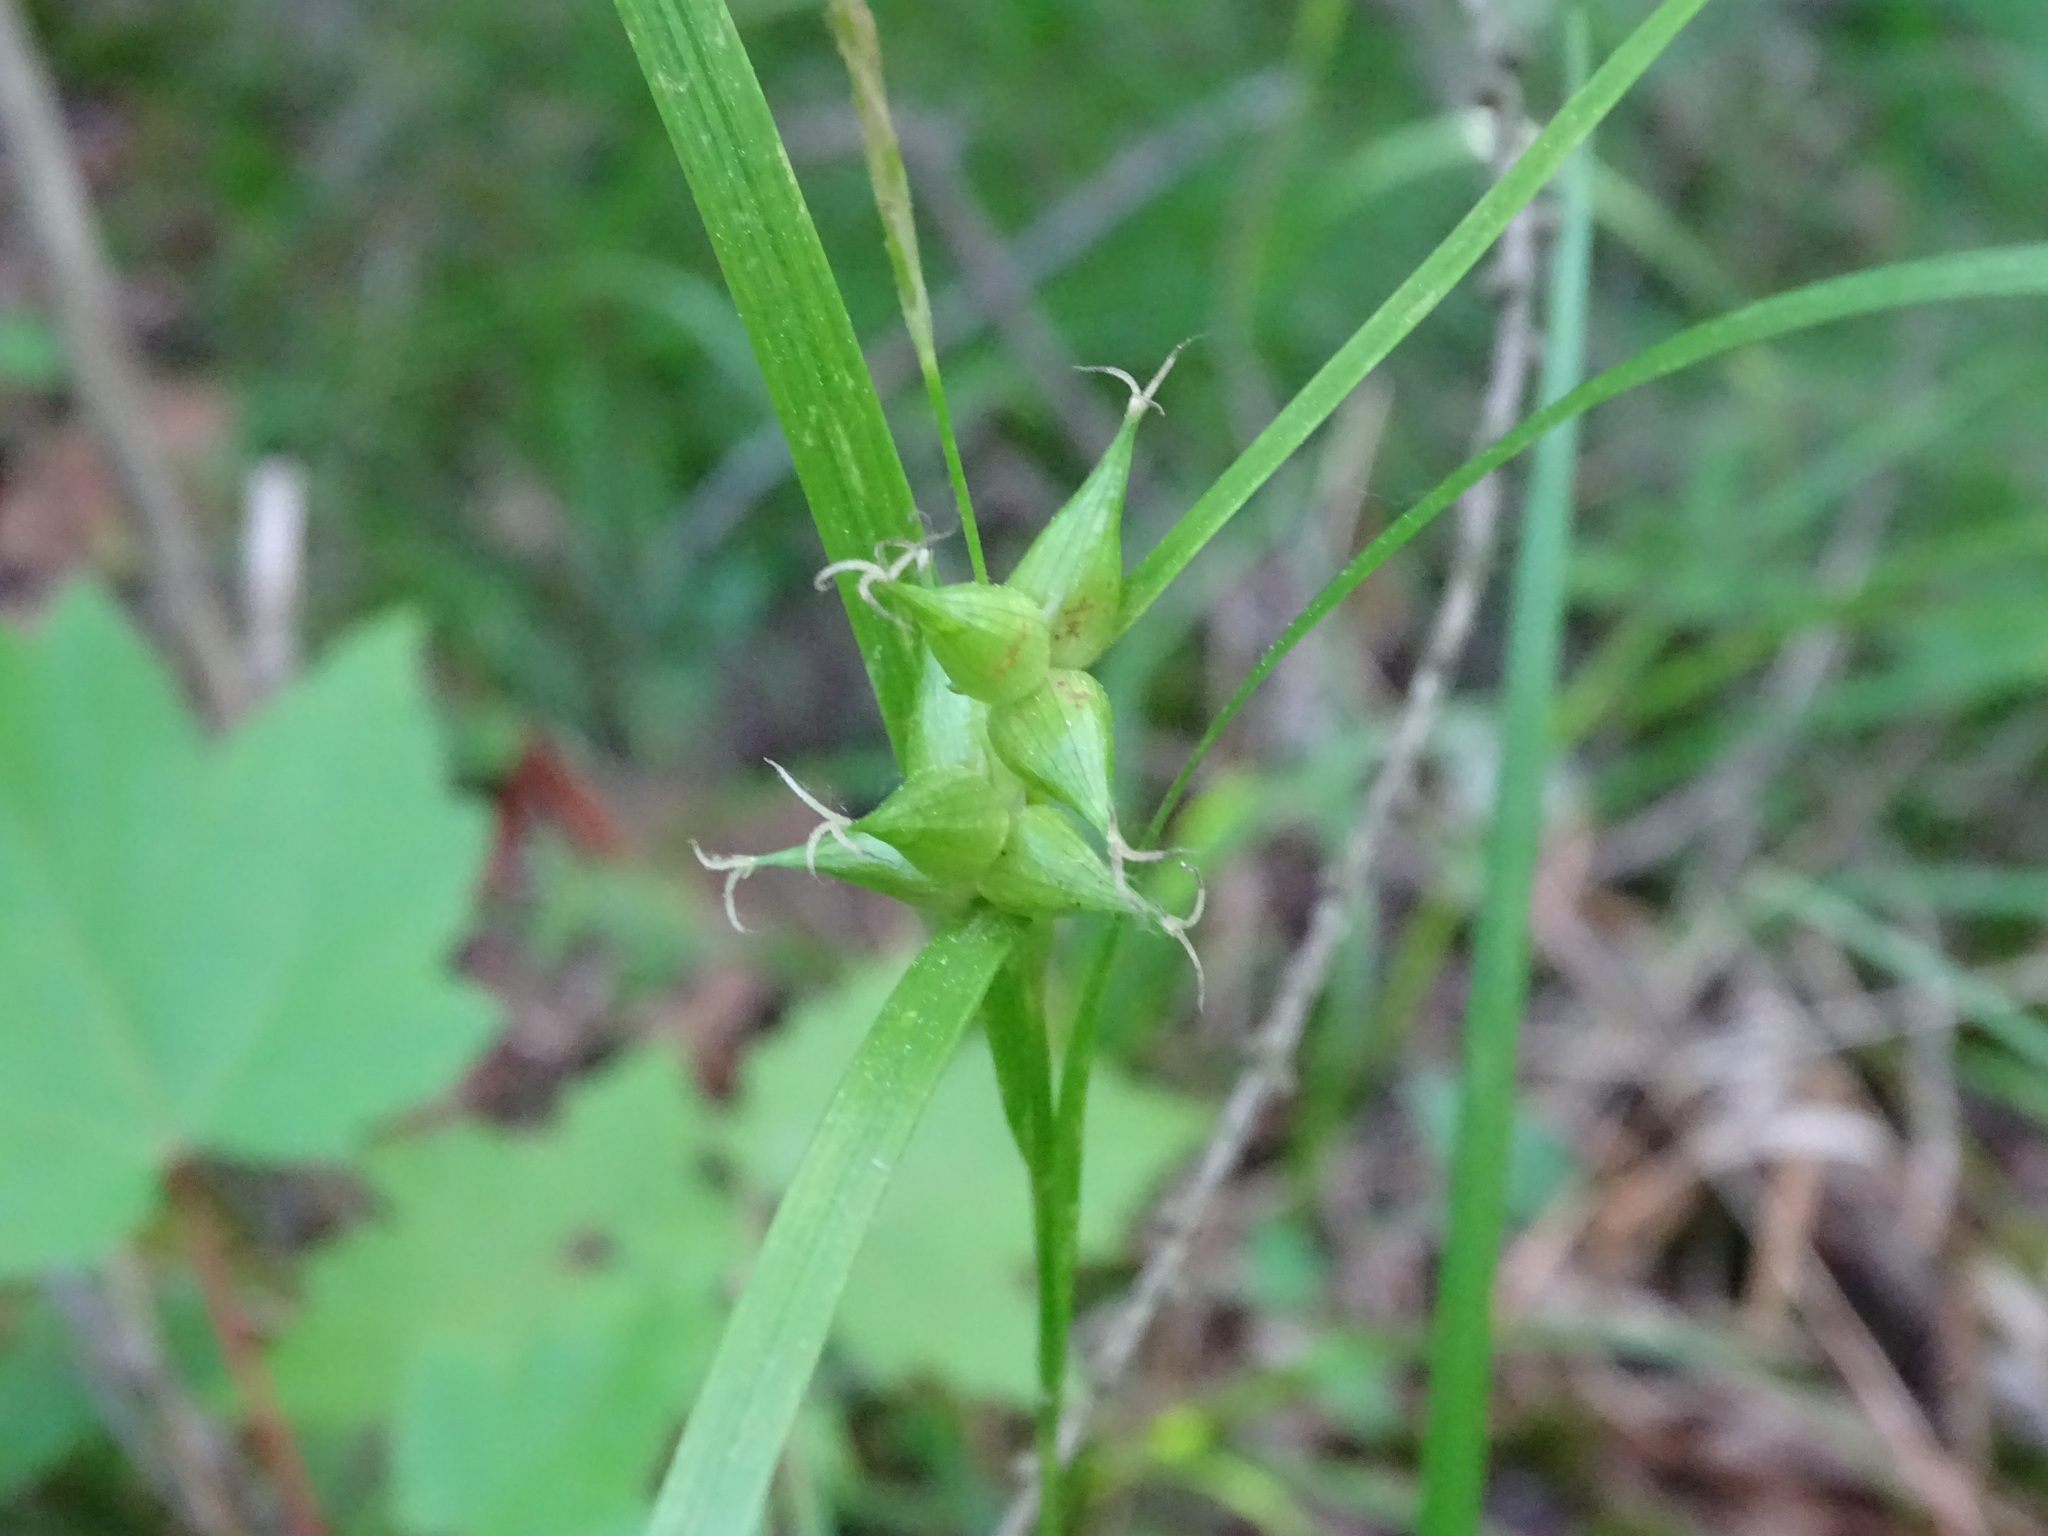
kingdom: Plantae
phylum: Tracheophyta
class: Liliopsida
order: Poales
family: Cyperaceae
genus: Carex
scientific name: Carex intumescens
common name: Greater bladder sedge
